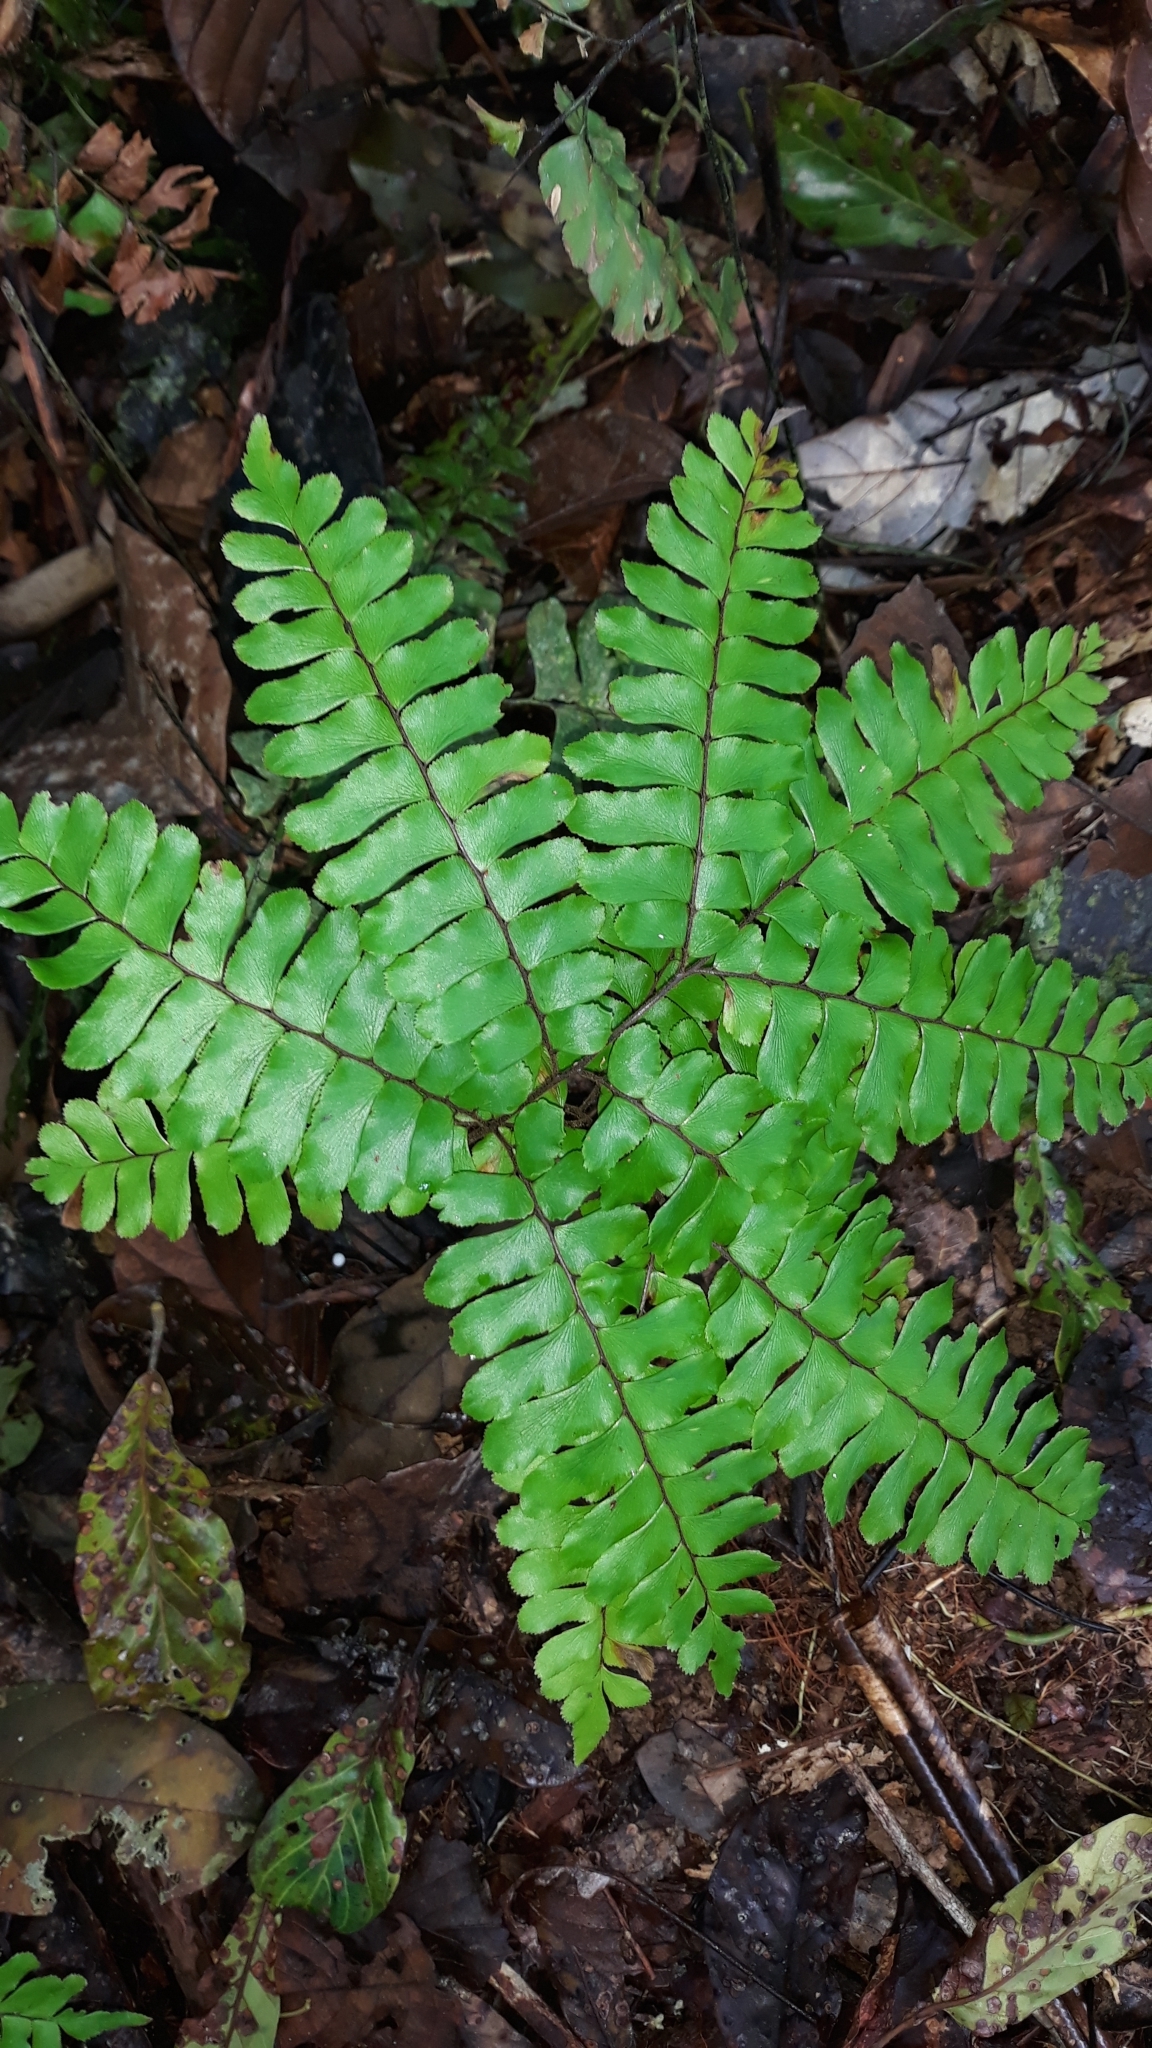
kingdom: Plantae
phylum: Tracheophyta
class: Polypodiopsida
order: Polypodiales
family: Pteridaceae
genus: Adiantum
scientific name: Adiantum humile
